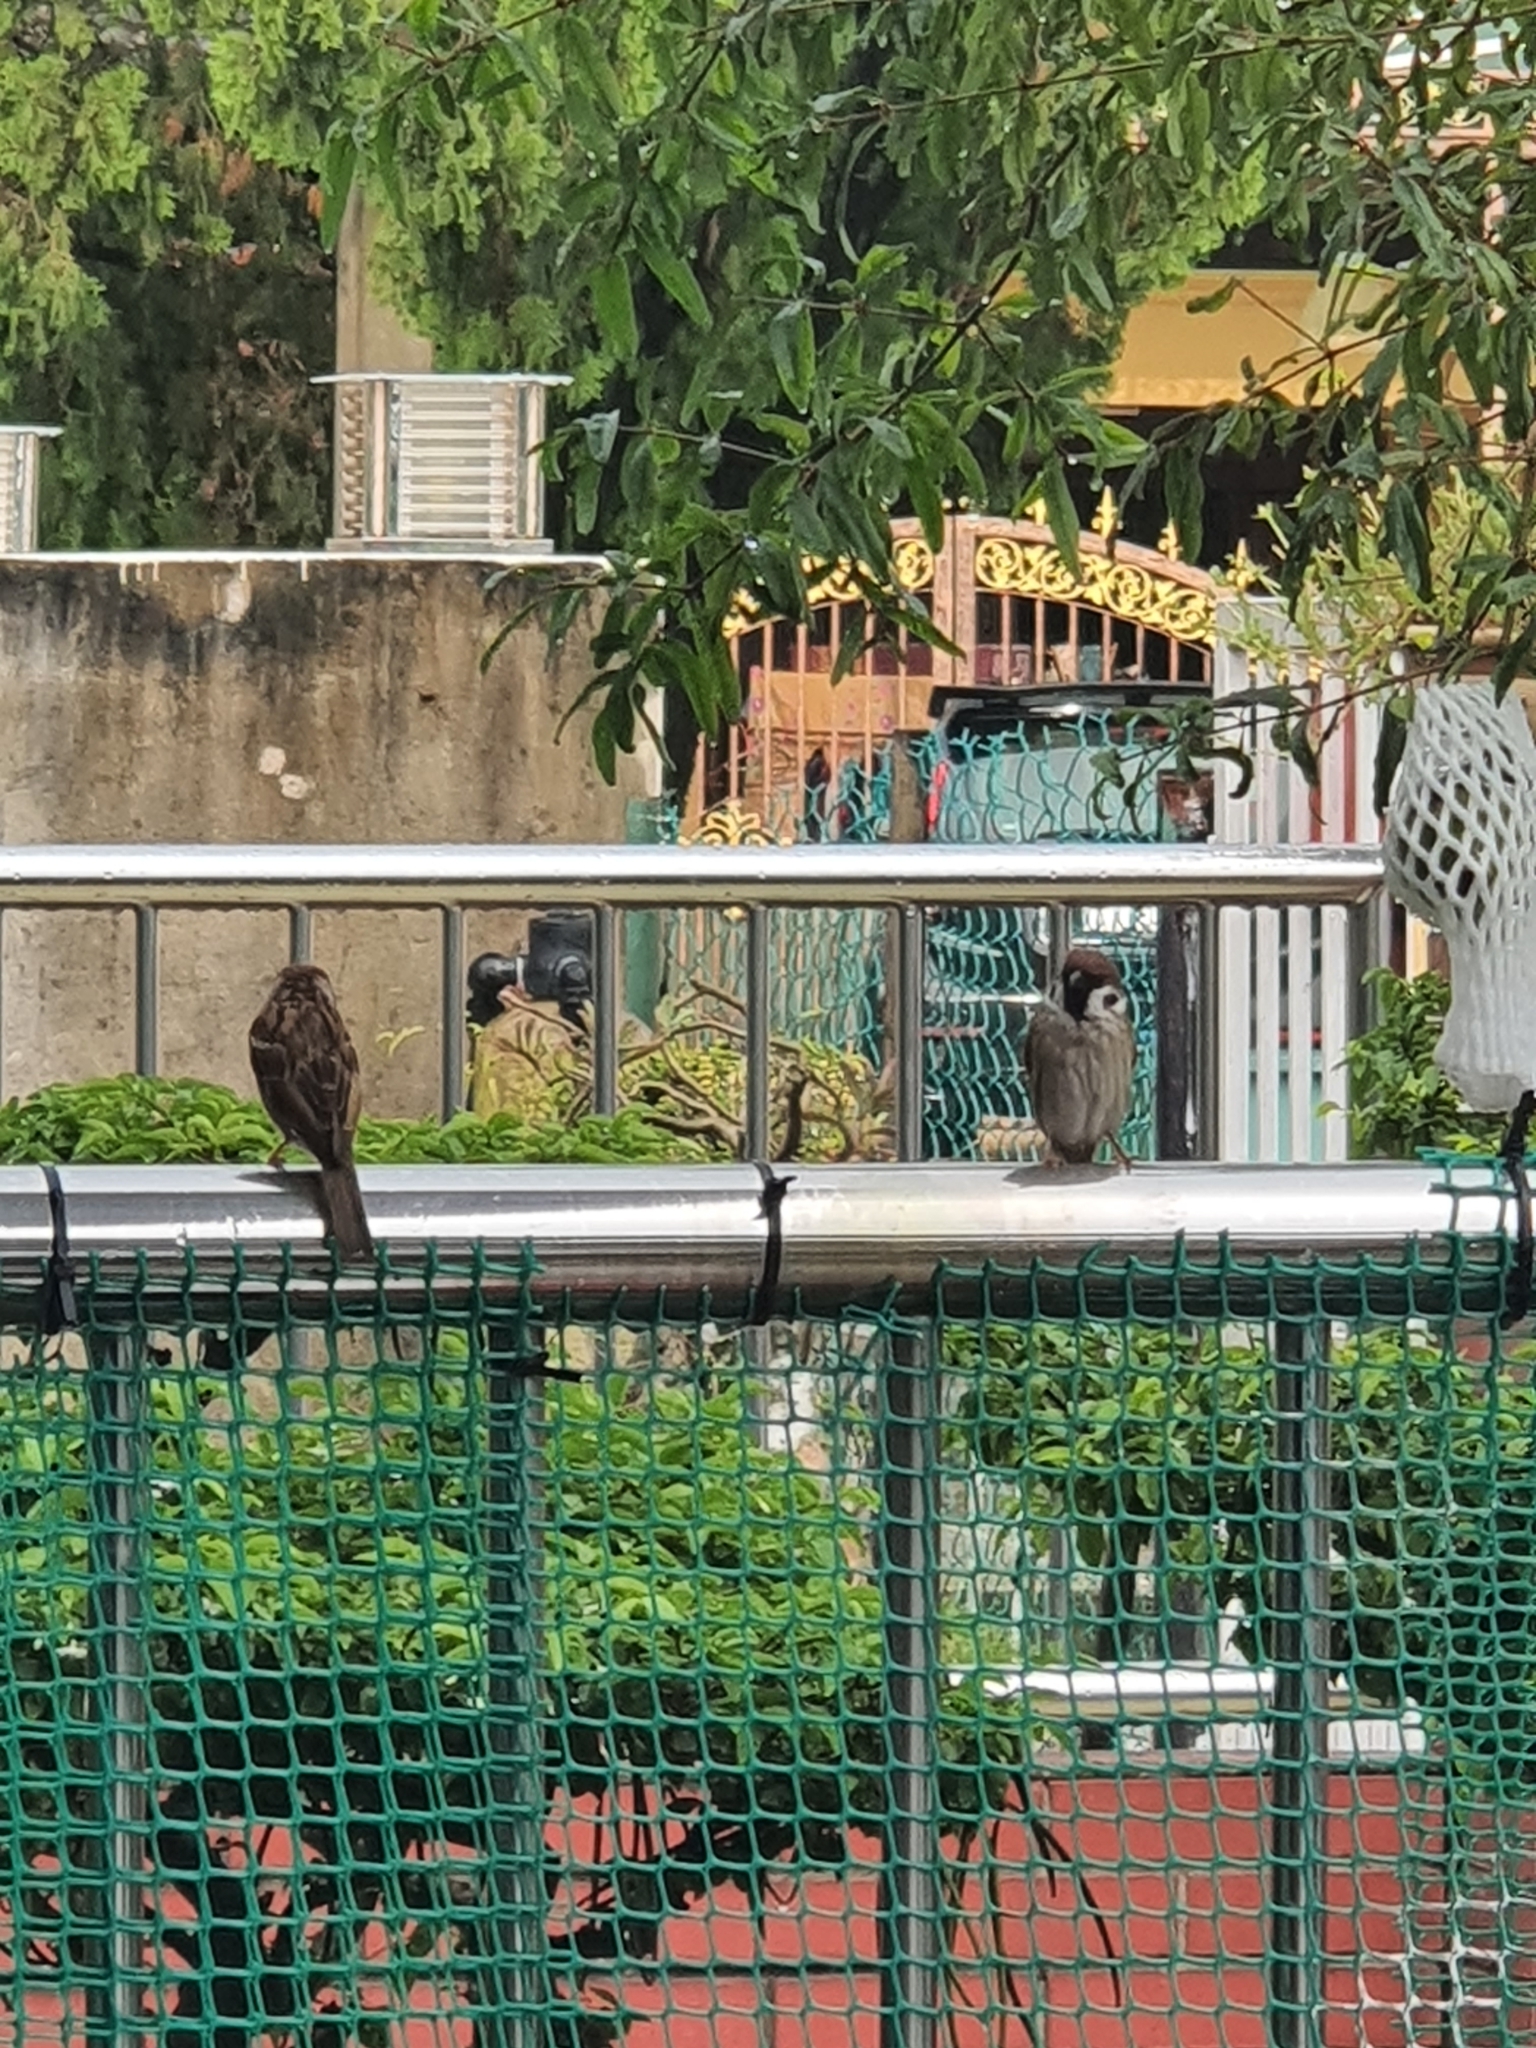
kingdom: Animalia
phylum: Chordata
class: Aves
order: Passeriformes
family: Passeridae
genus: Passer
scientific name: Passer montanus
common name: Eurasian tree sparrow
